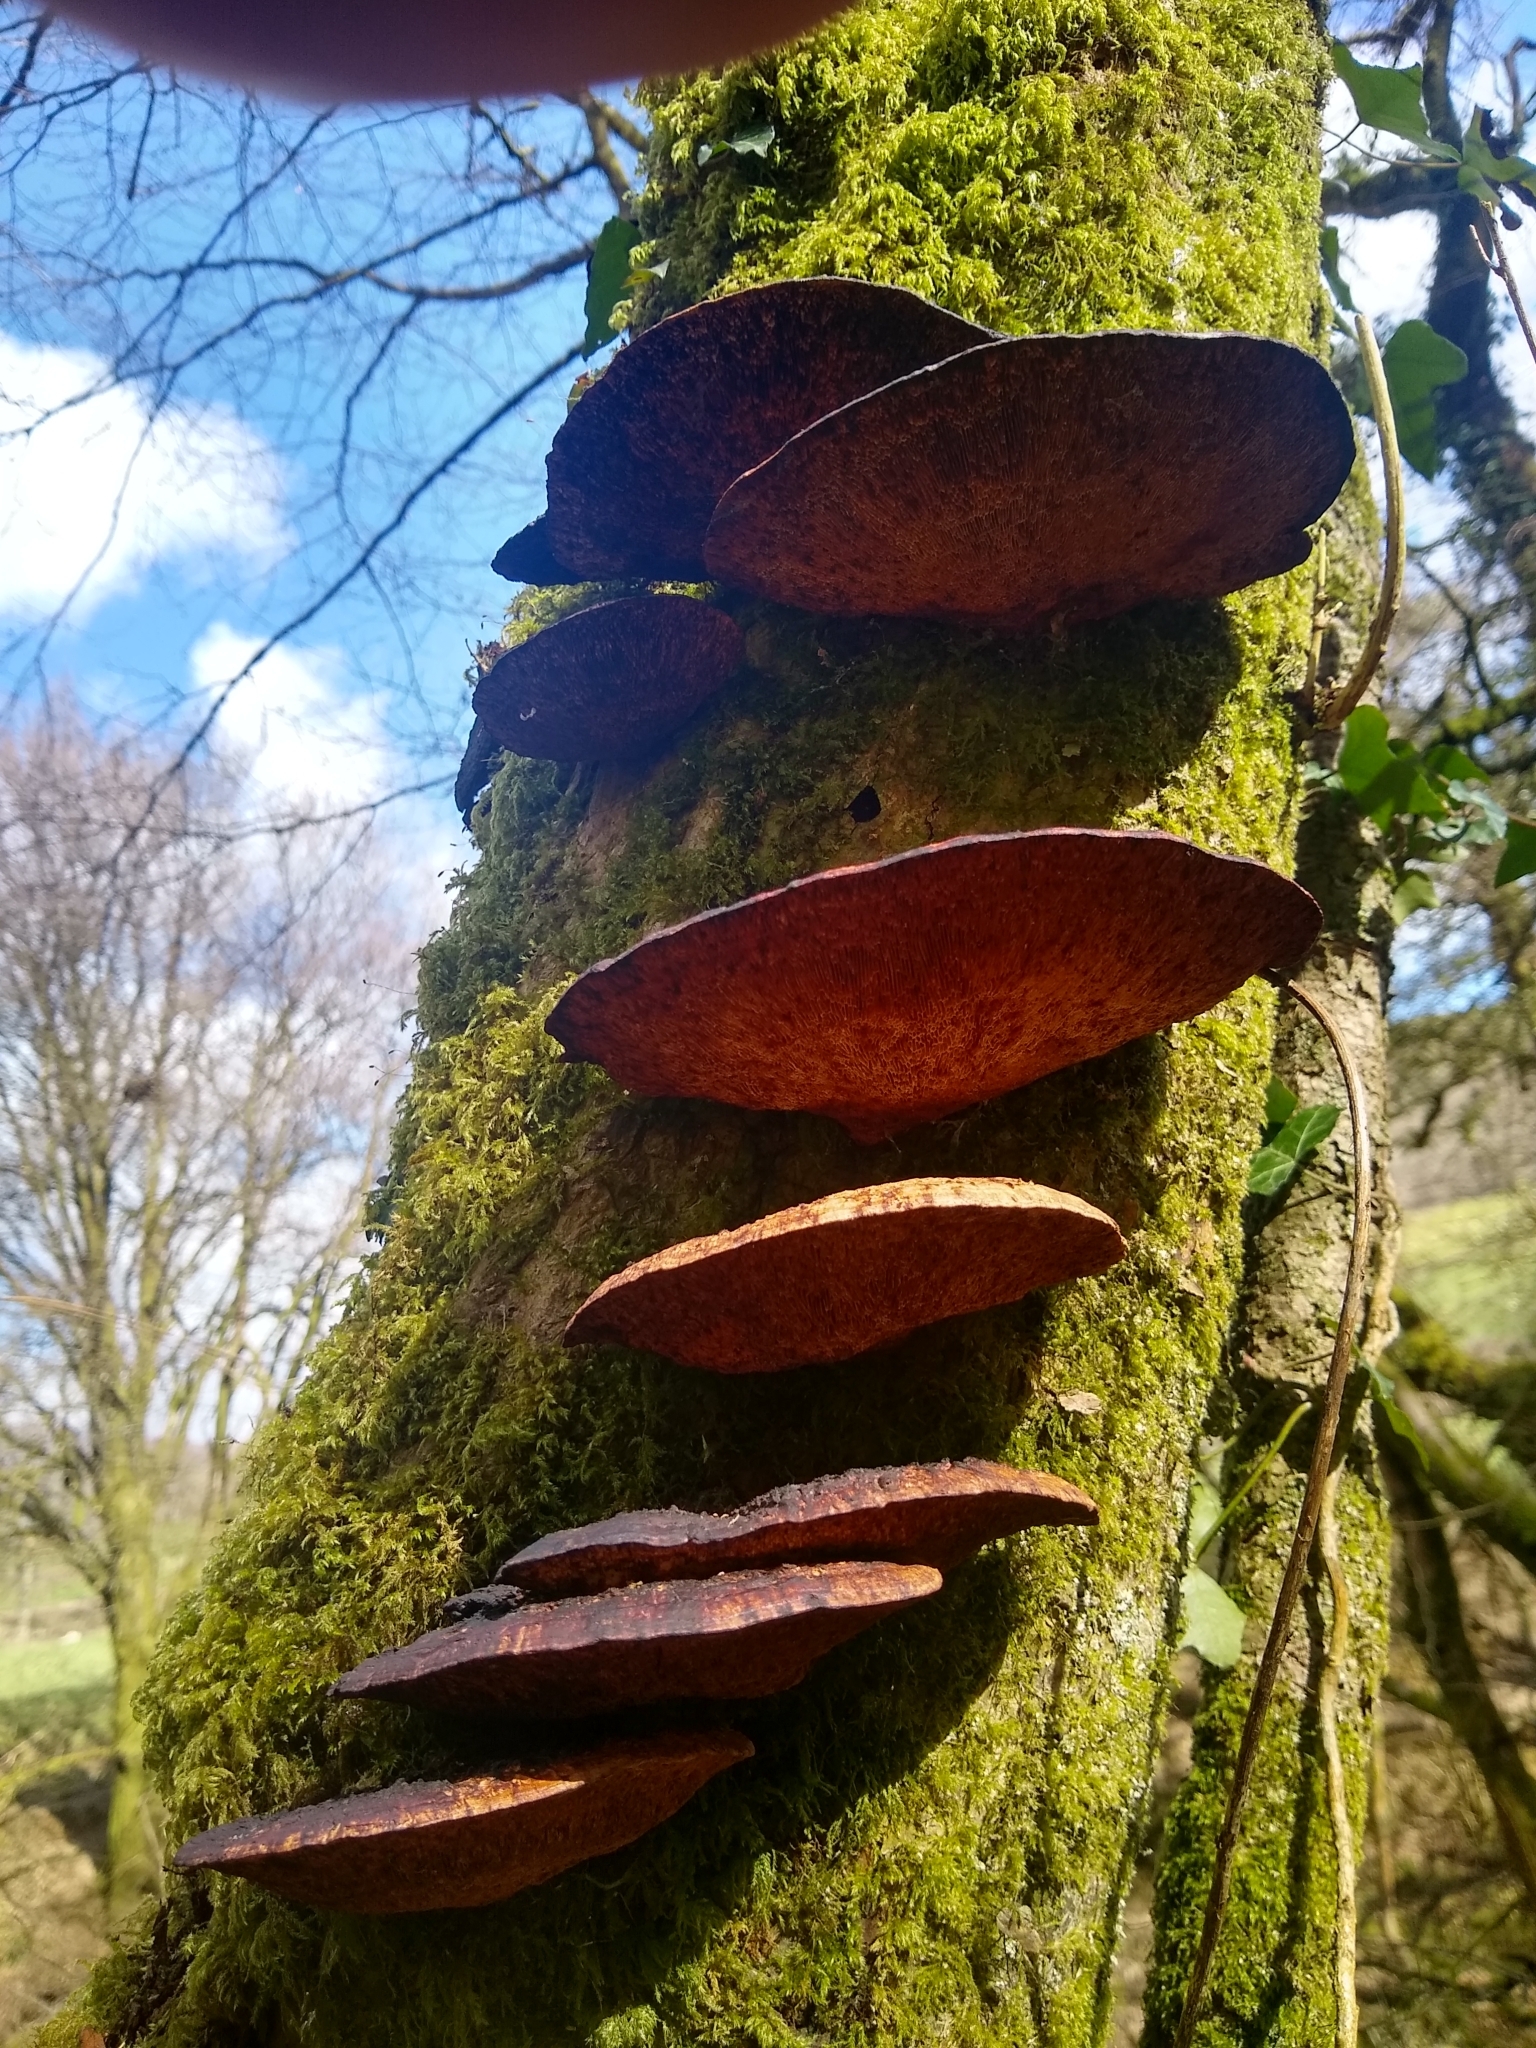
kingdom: Fungi
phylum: Basidiomycota
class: Agaricomycetes
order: Polyporales
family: Polyporaceae
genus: Daedaleopsis
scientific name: Daedaleopsis confragosa
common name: Blushing bracket
